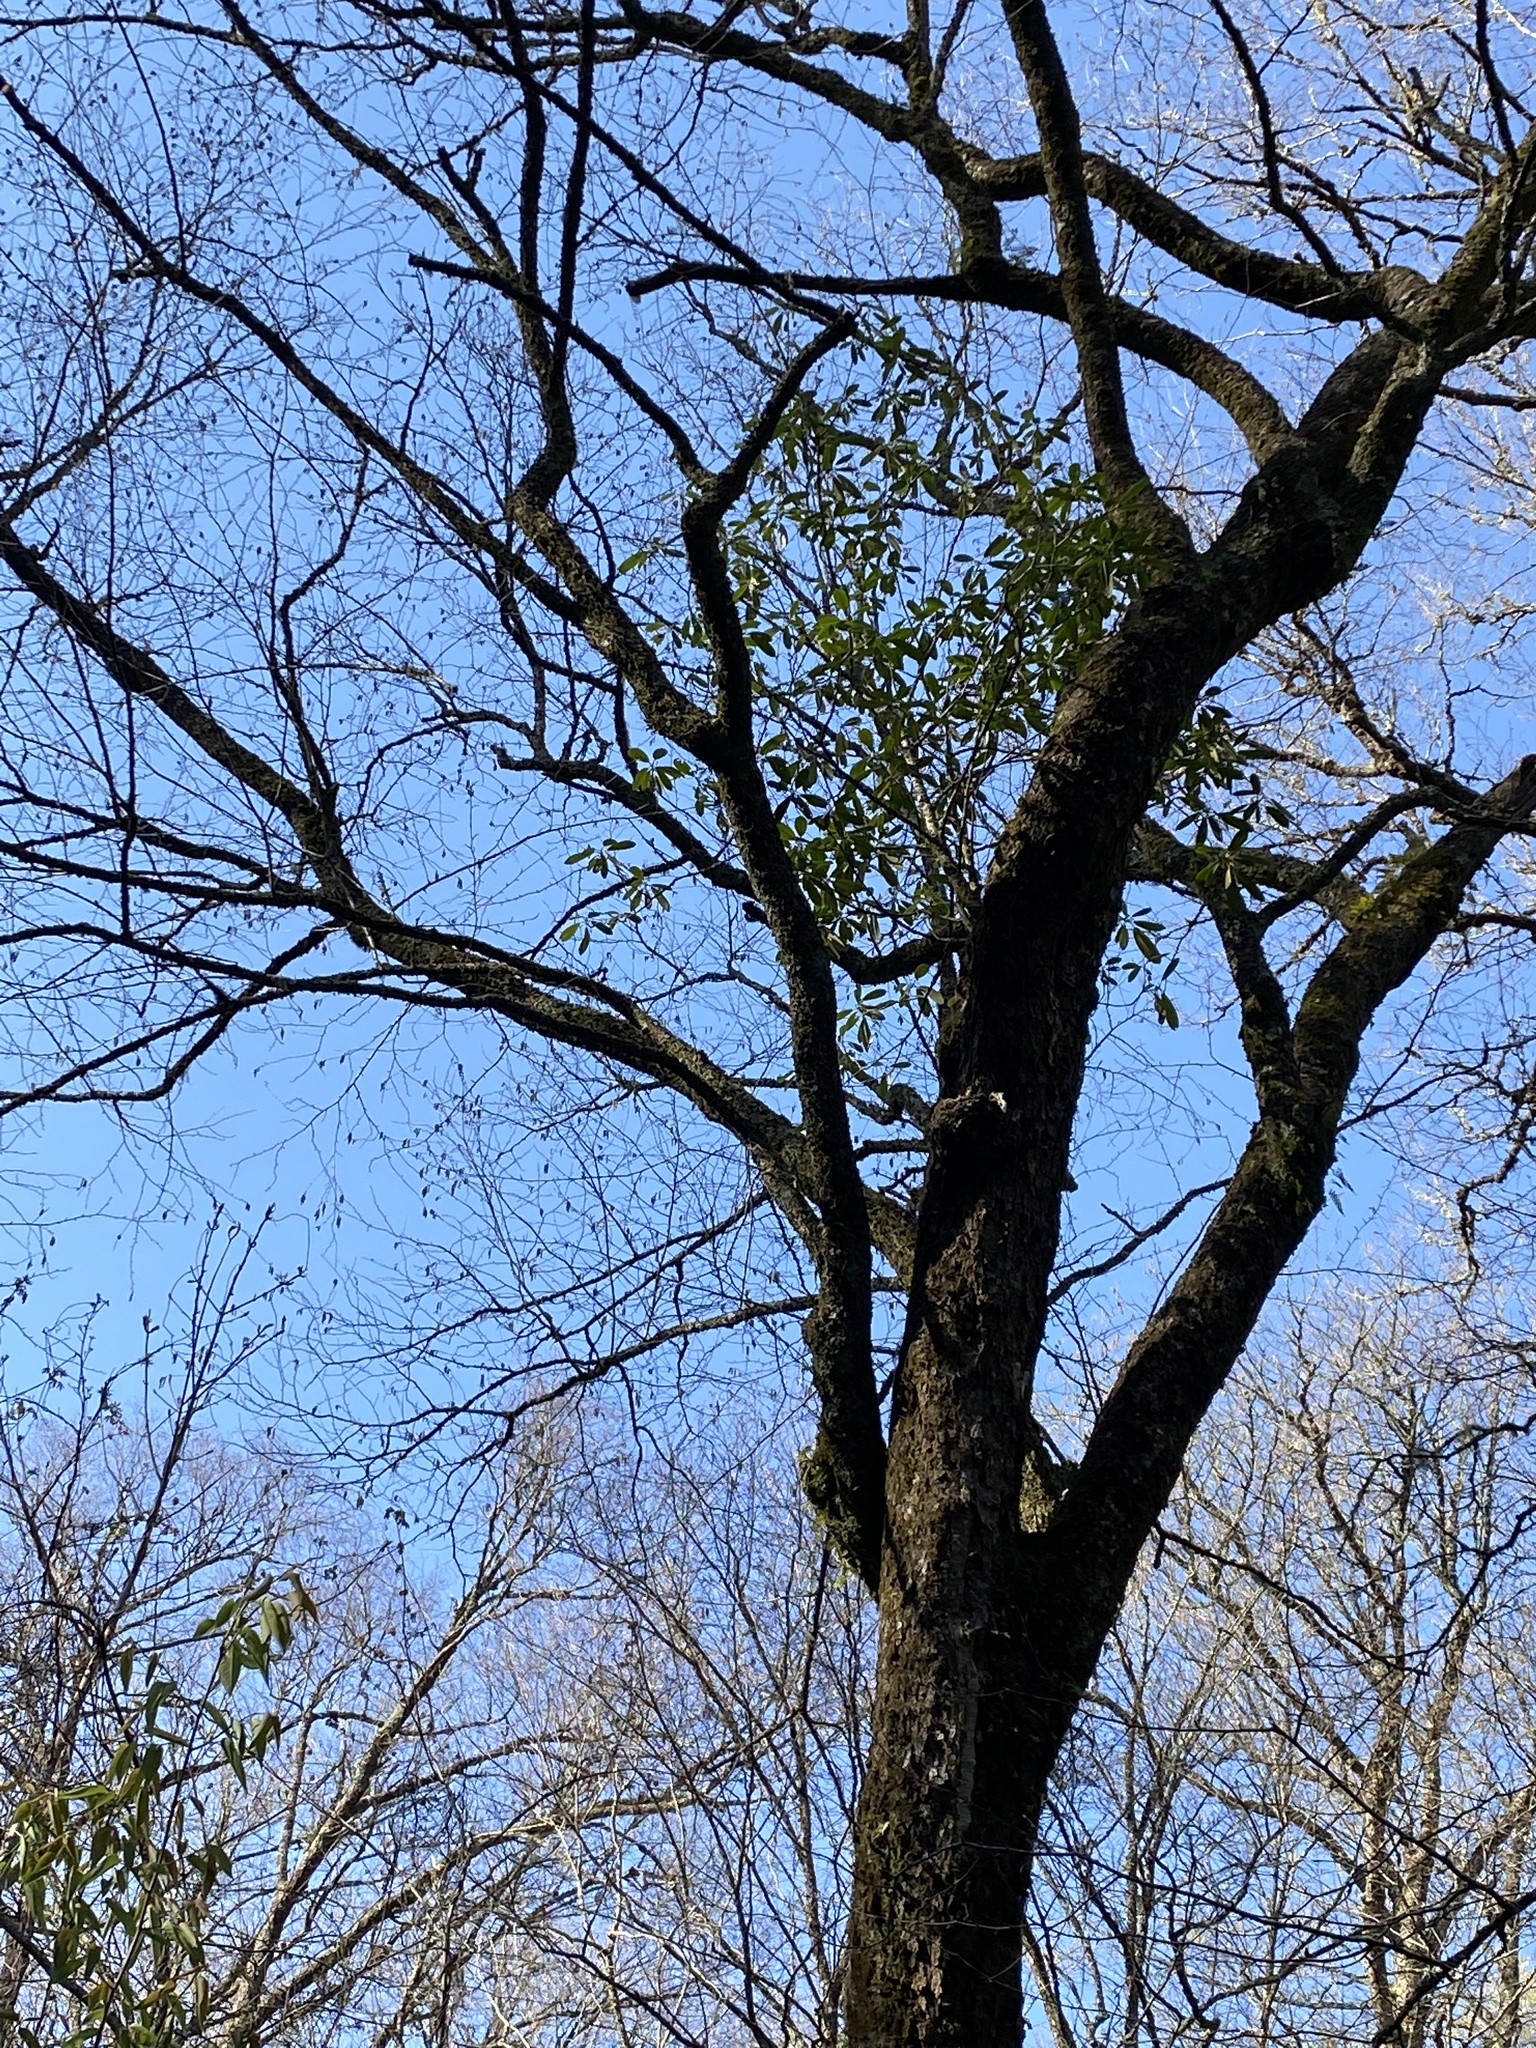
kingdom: Plantae
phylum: Tracheophyta
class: Magnoliopsida
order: Ericales
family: Ericaceae
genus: Rhododendron
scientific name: Rhododendron maximum
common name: Great rhododendron
